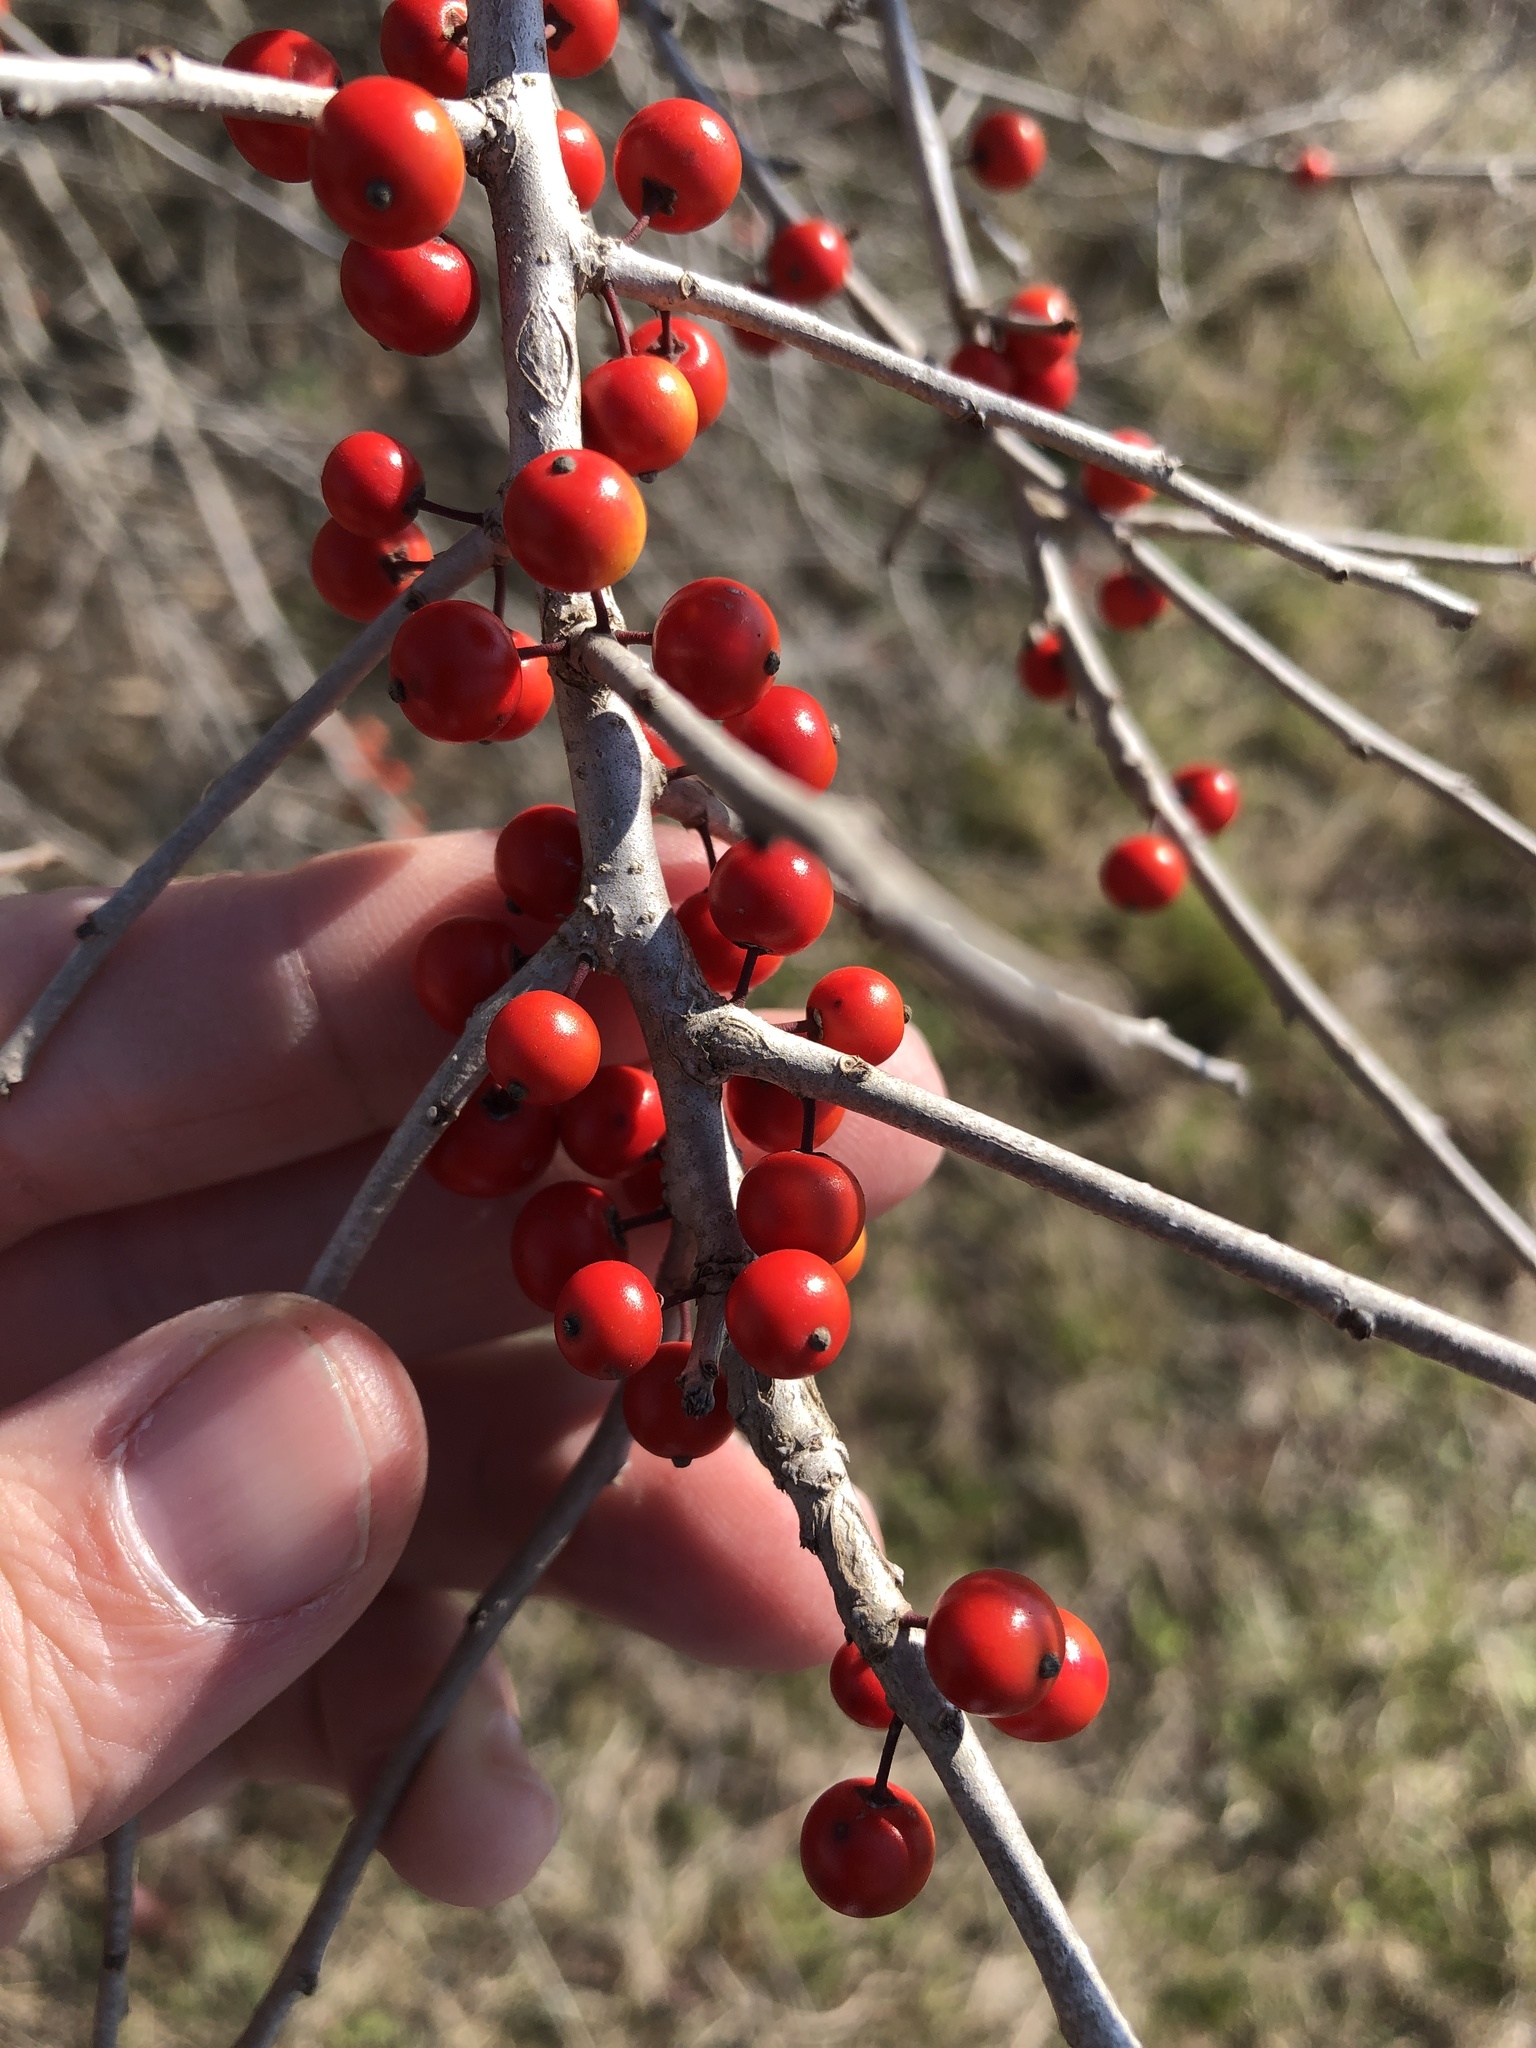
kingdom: Plantae
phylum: Tracheophyta
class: Magnoliopsida
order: Aquifoliales
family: Aquifoliaceae
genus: Ilex
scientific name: Ilex decidua
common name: Possum-haw
